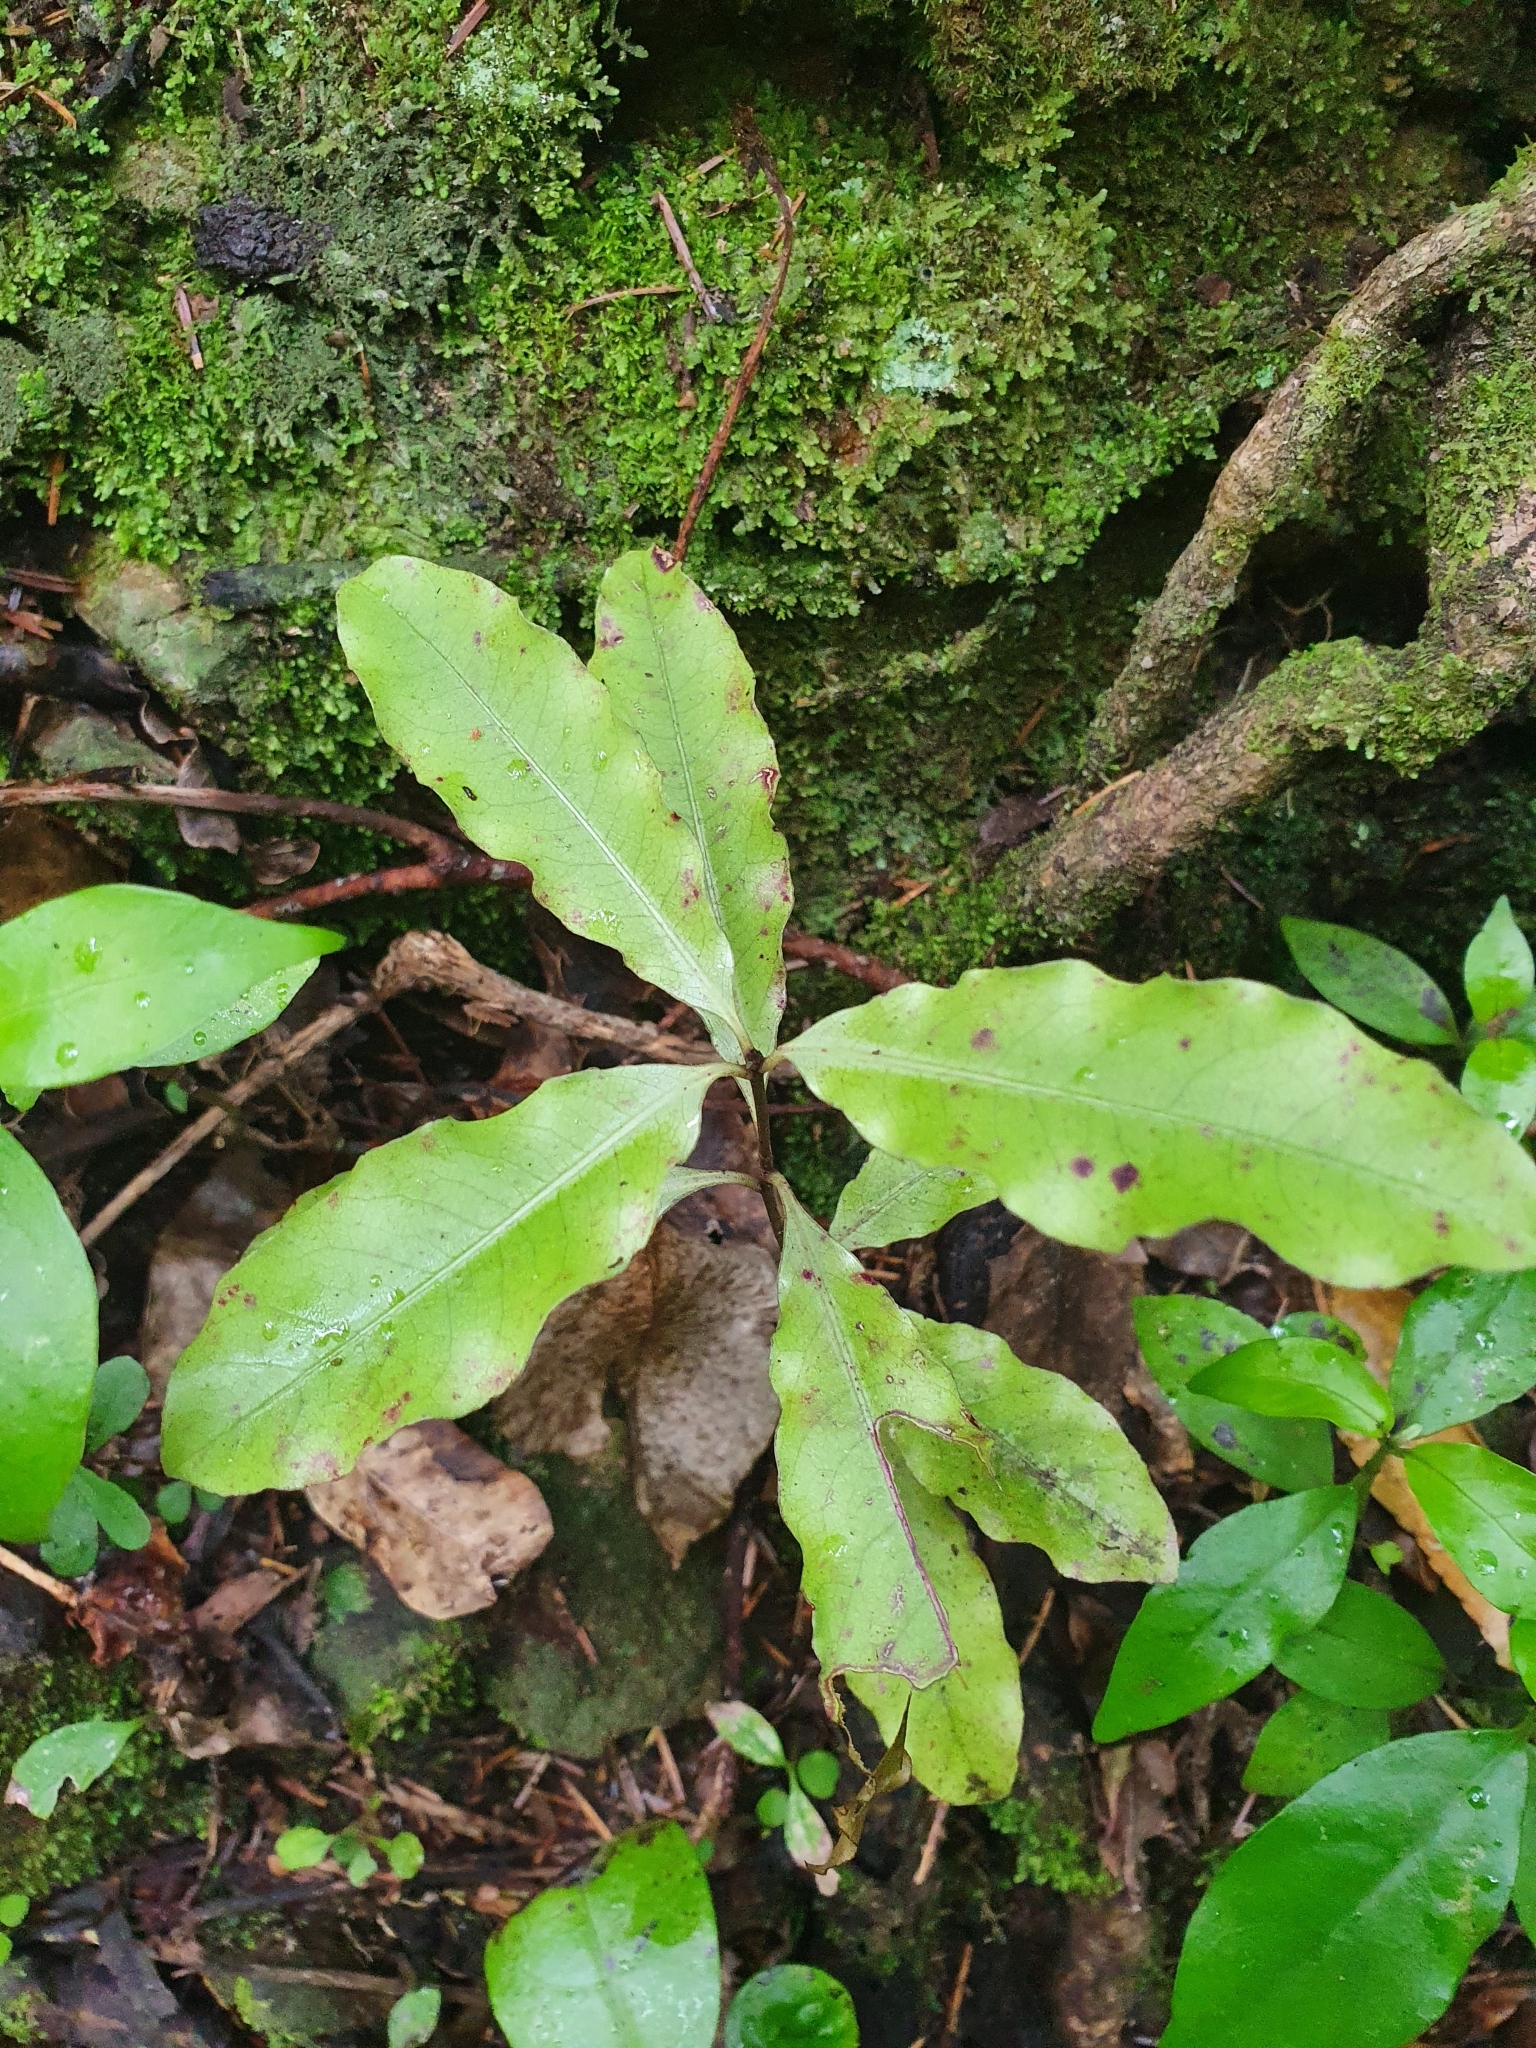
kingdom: Plantae
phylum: Tracheophyta
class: Magnoliopsida
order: Apiales
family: Pittosporaceae
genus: Pittosporum
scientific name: Pittosporum eugenioides
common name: Lemonwood
